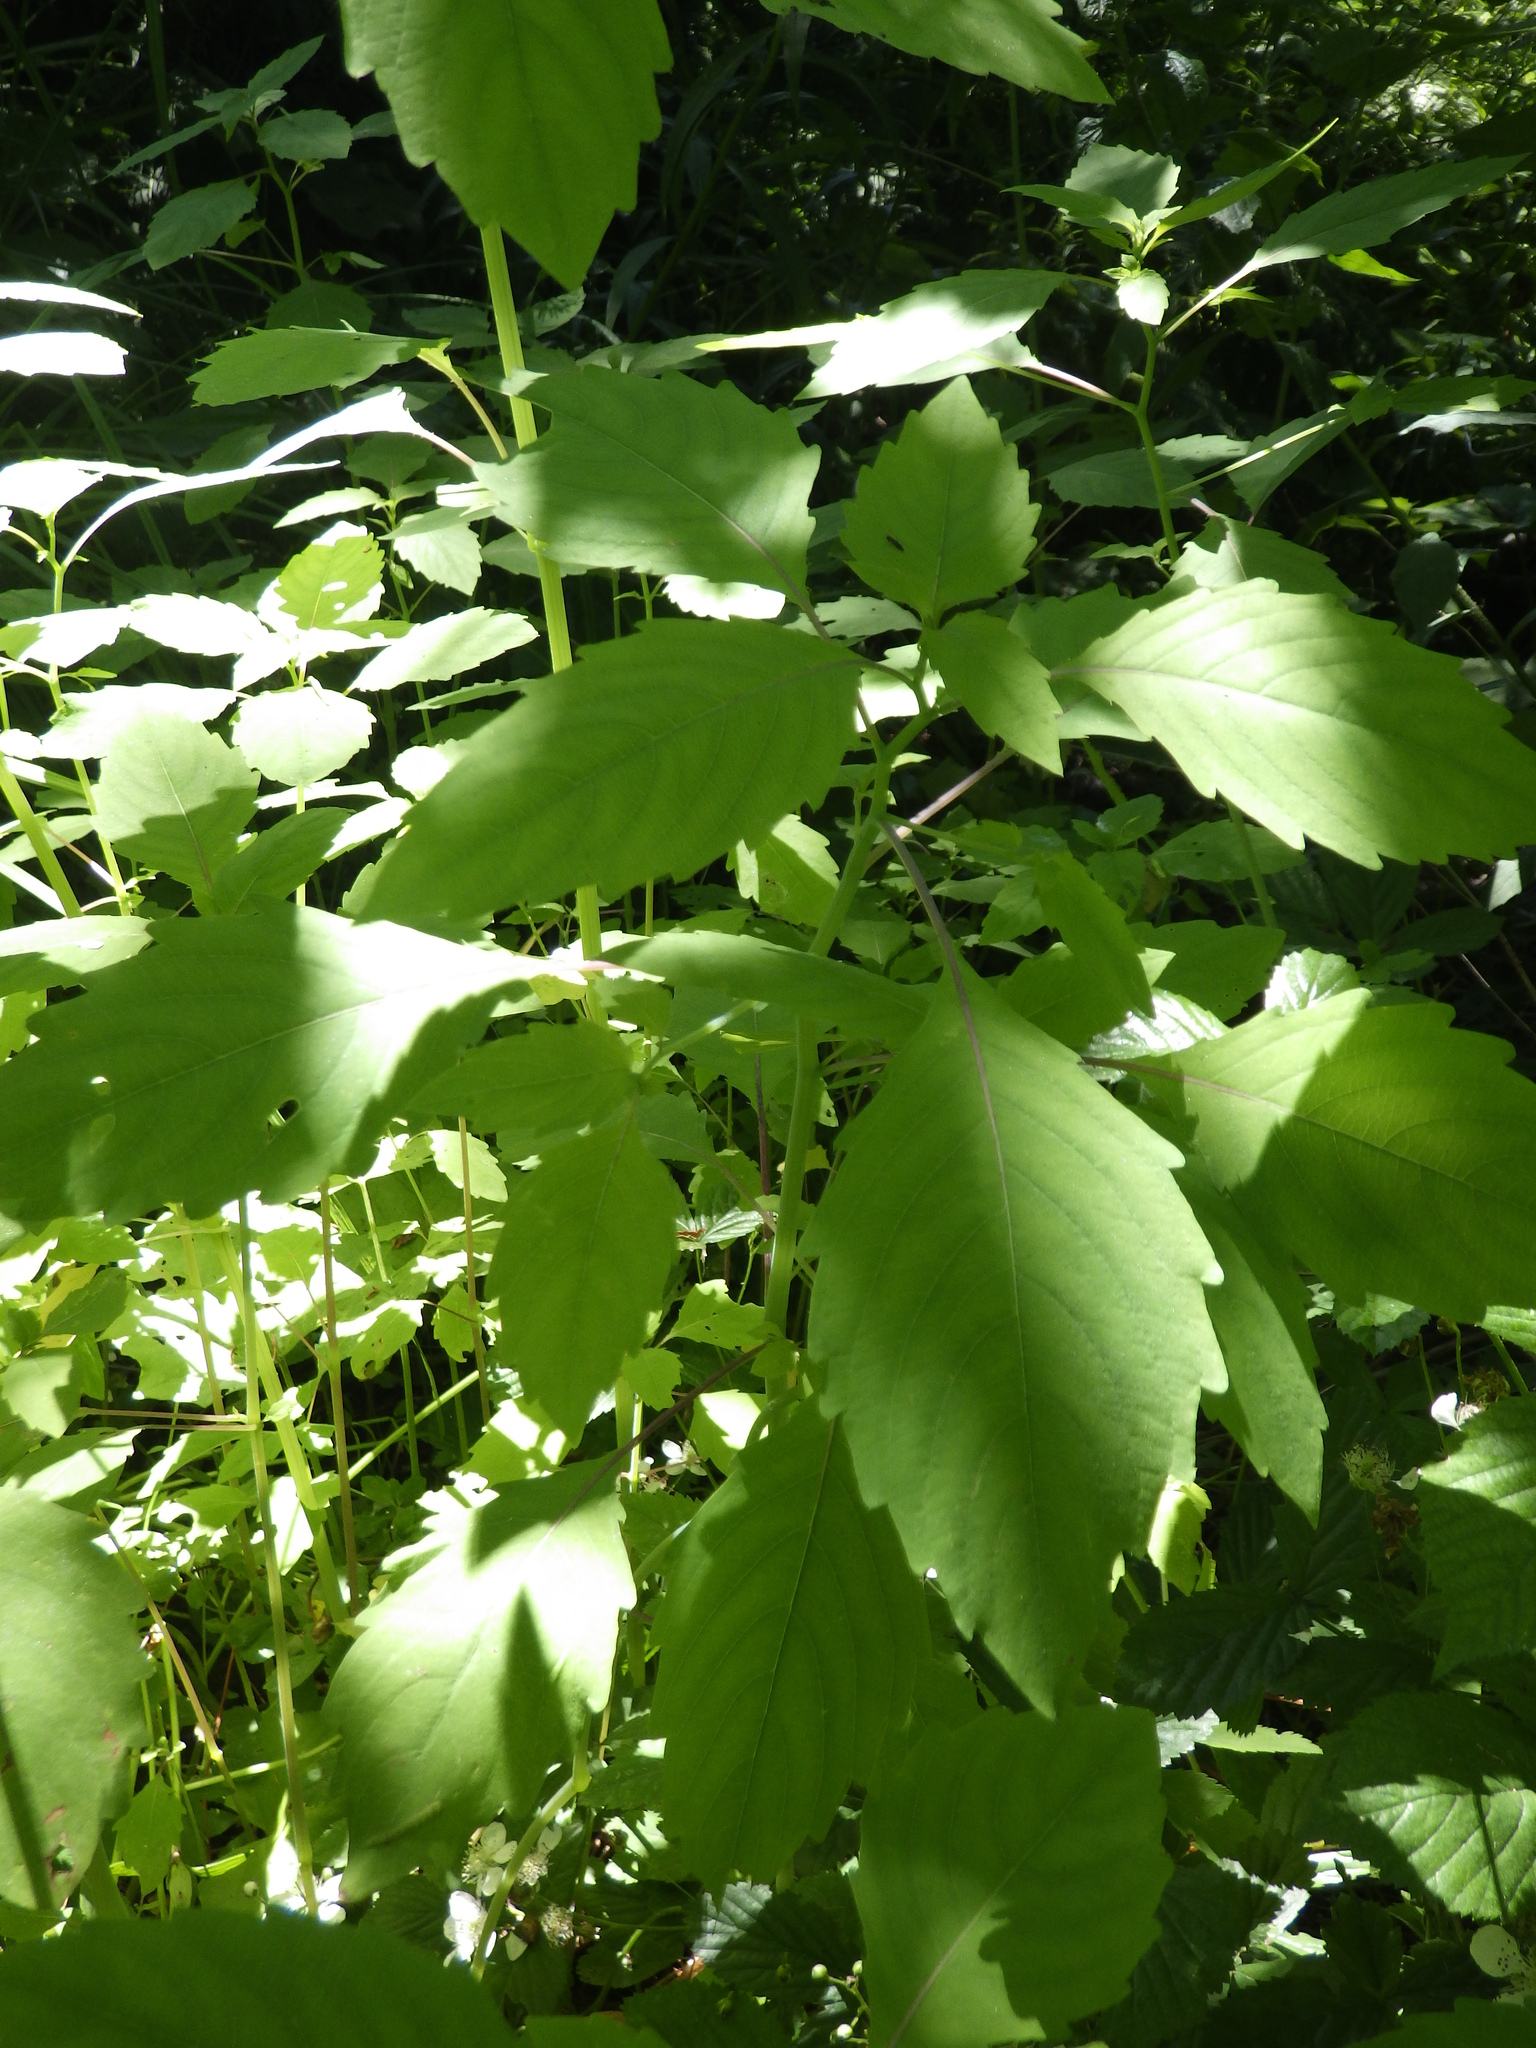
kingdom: Plantae
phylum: Tracheophyta
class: Magnoliopsida
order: Ericales
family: Balsaminaceae
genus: Impatiens
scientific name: Impatiens capensis
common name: Orange balsam
